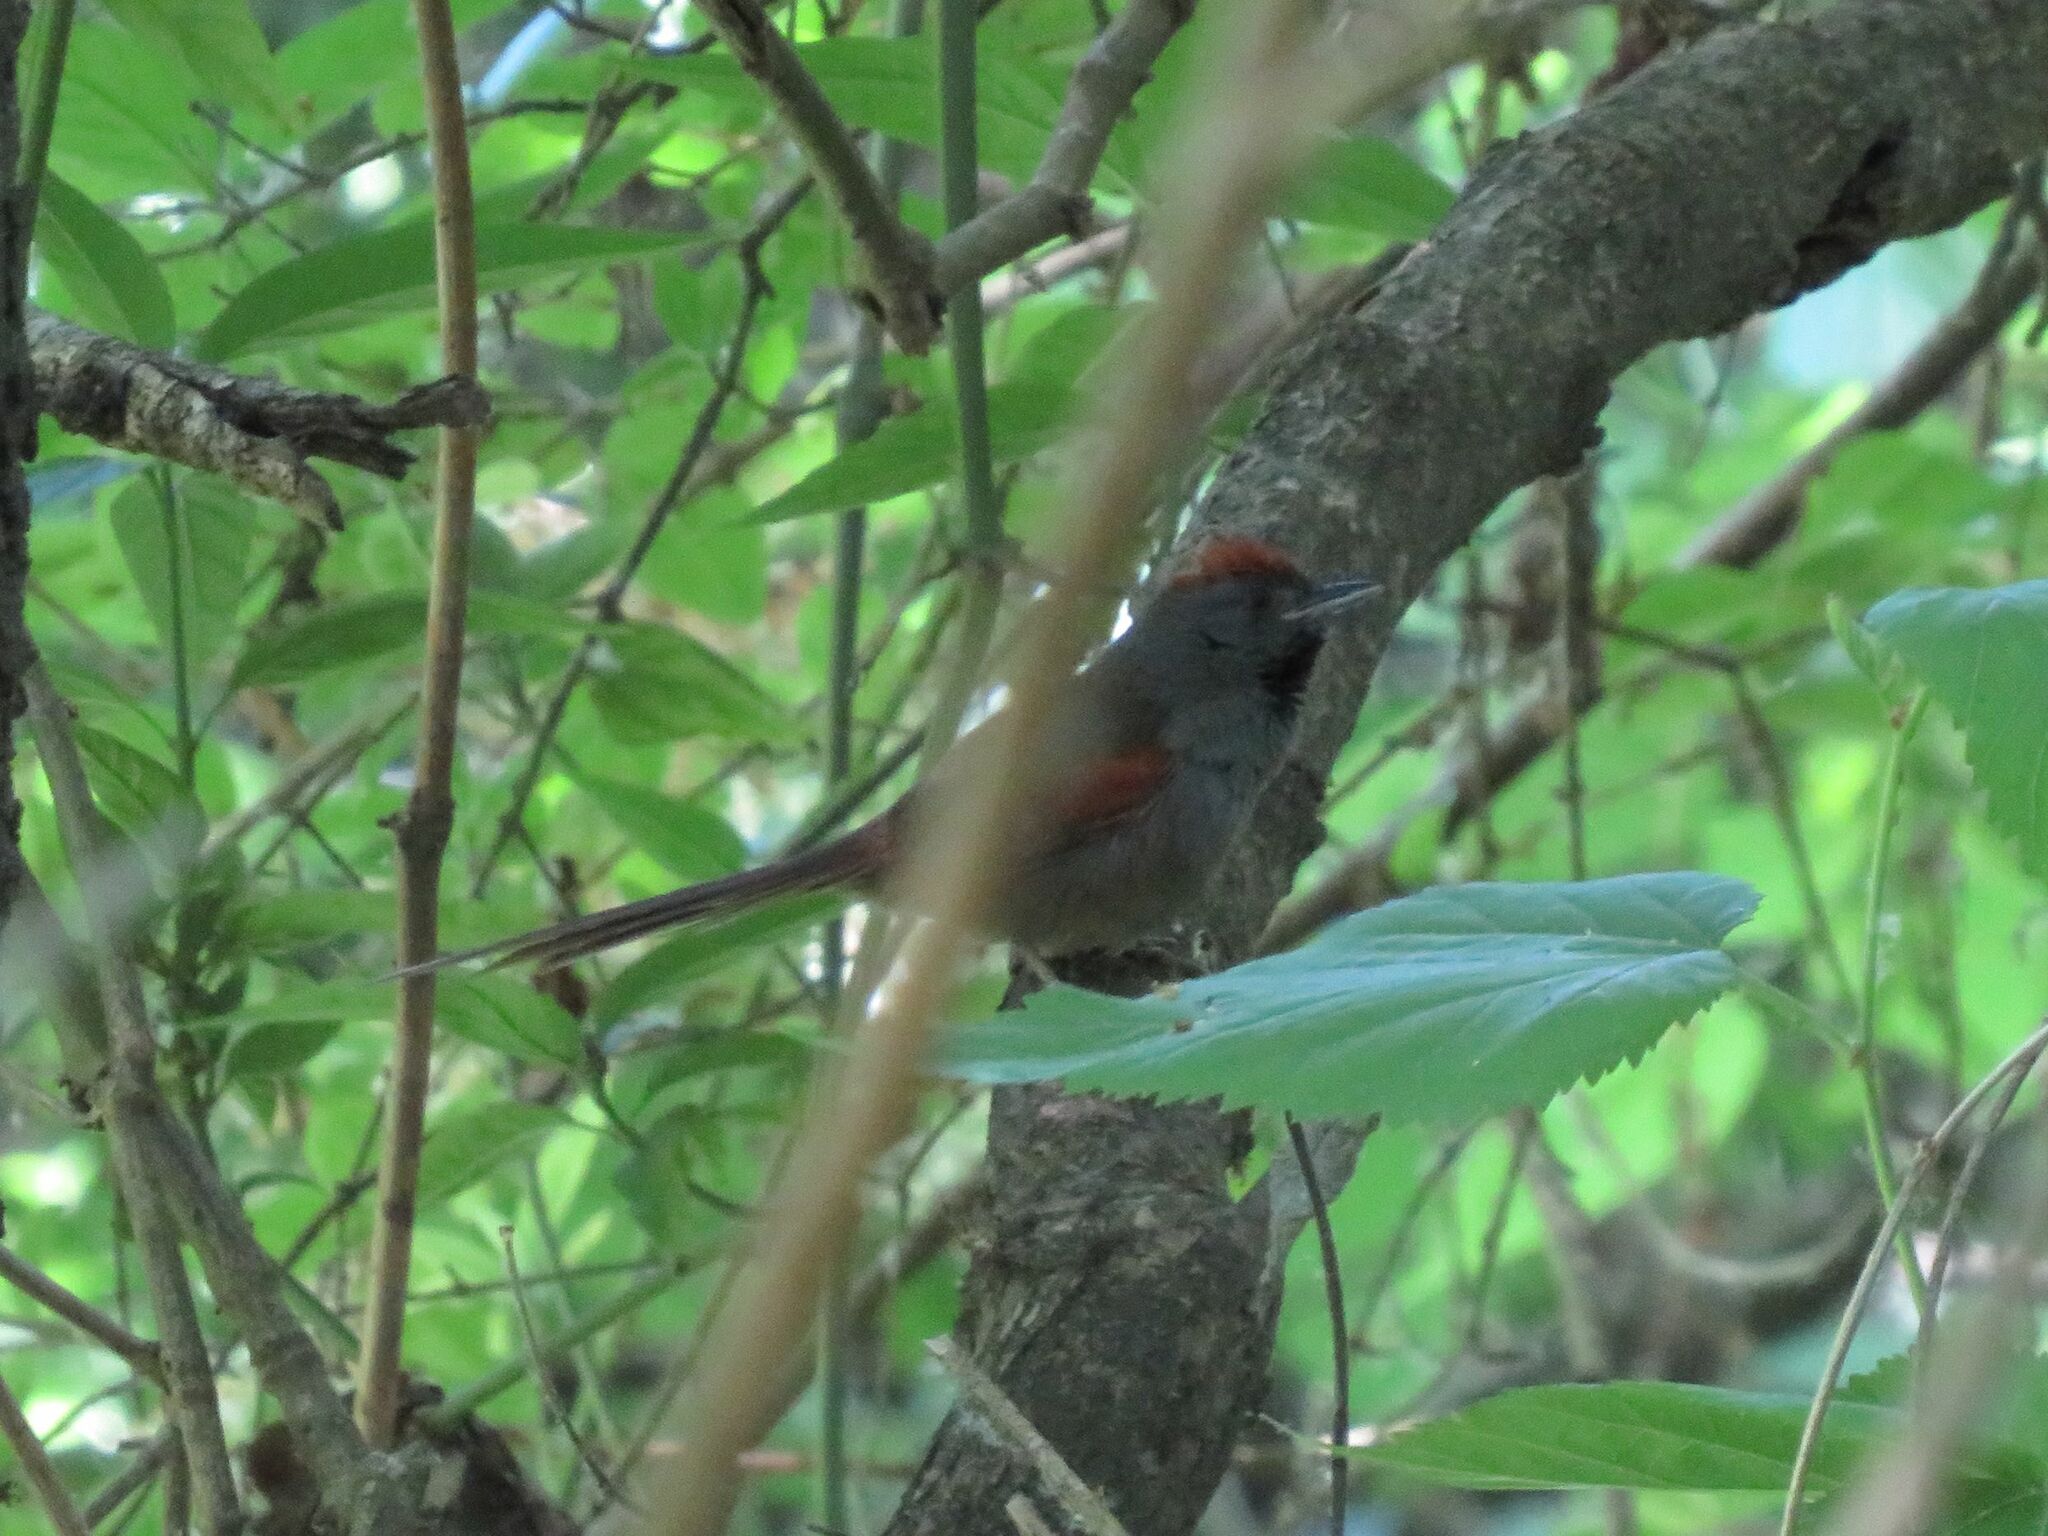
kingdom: Animalia
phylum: Chordata
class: Aves
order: Passeriformes
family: Furnariidae
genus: Synallaxis
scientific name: Synallaxis spixi
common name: Spix's spinetail
